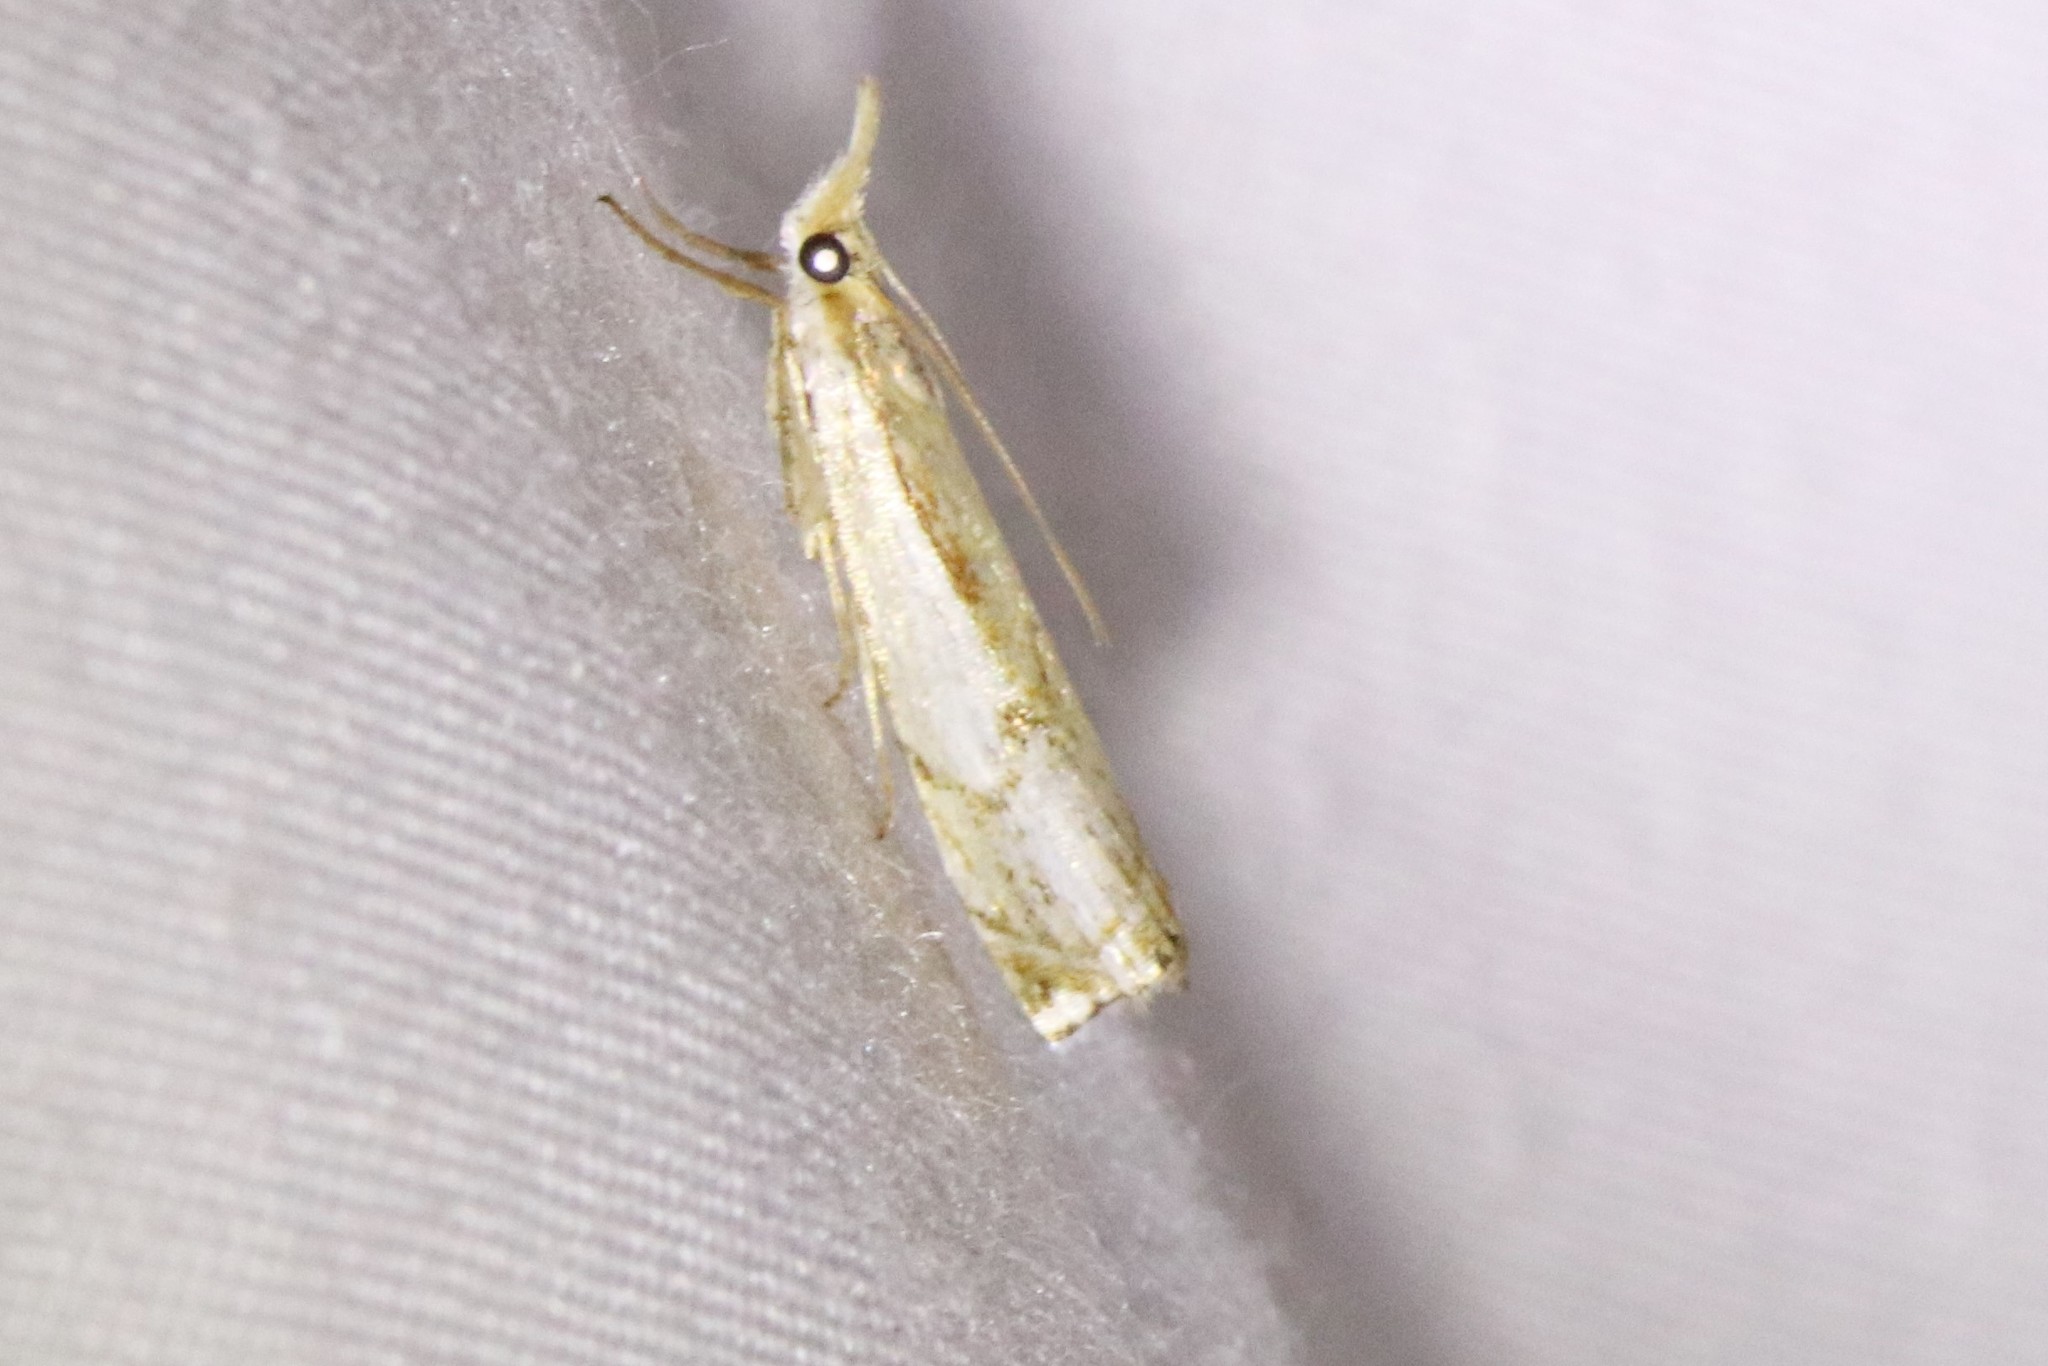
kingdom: Animalia
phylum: Arthropoda
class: Insecta
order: Lepidoptera
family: Crambidae
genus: Crambus
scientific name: Crambus agitatellus
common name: Double-banded grass-veneer
